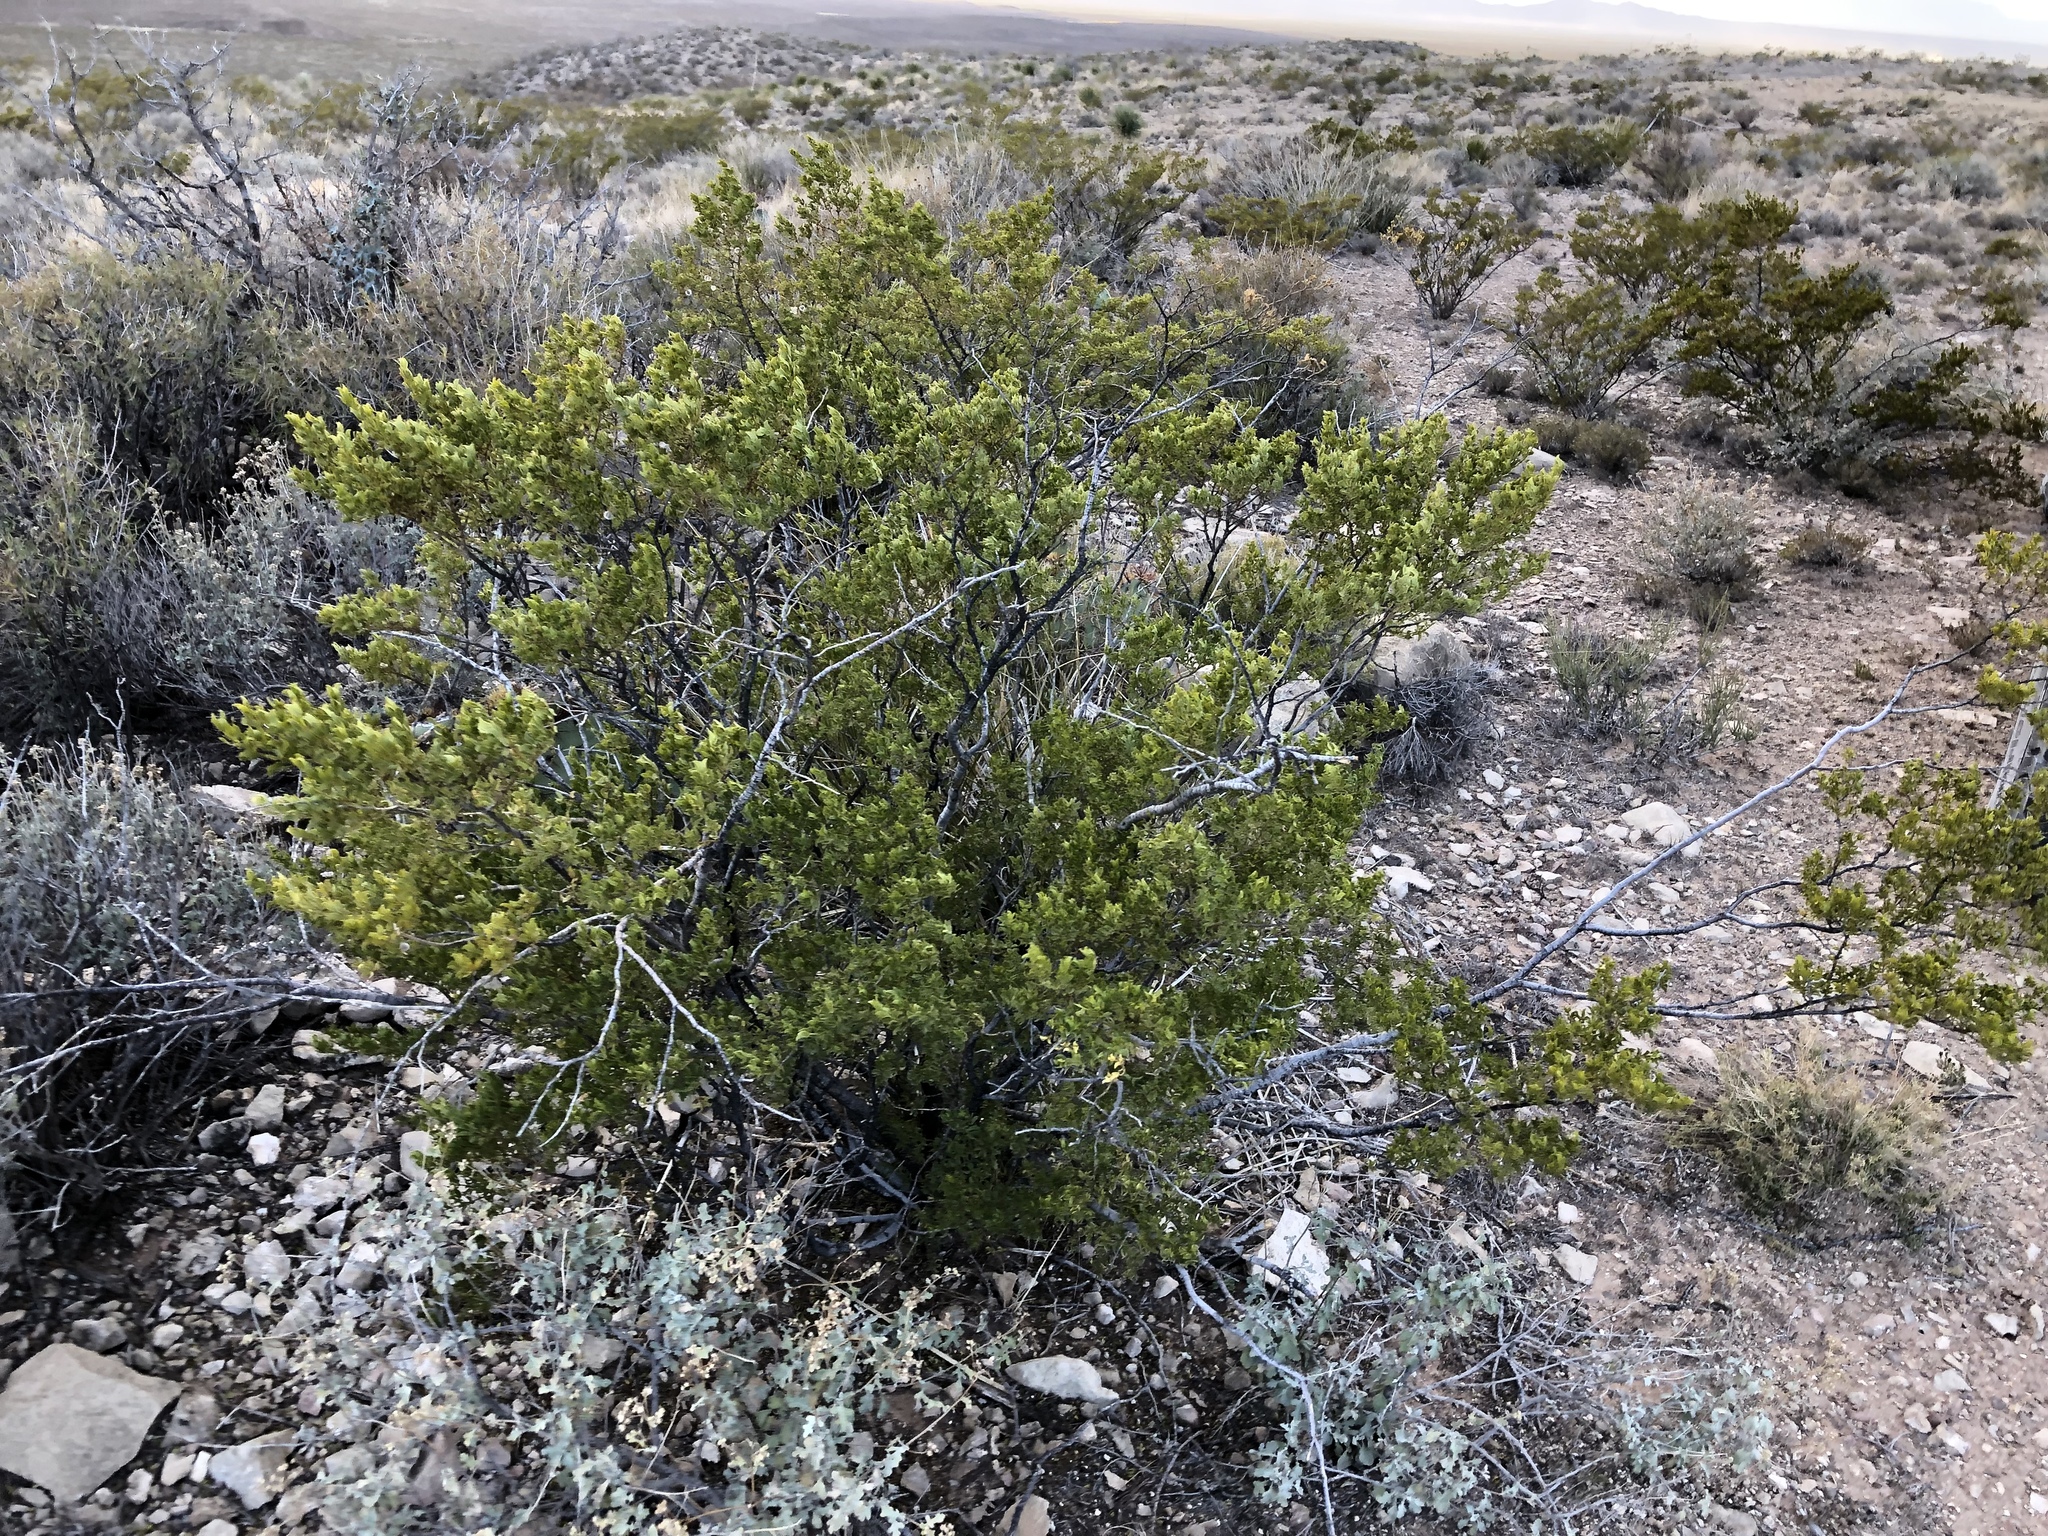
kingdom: Plantae
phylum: Tracheophyta
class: Magnoliopsida
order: Zygophyllales
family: Zygophyllaceae
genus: Larrea
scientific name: Larrea tridentata
